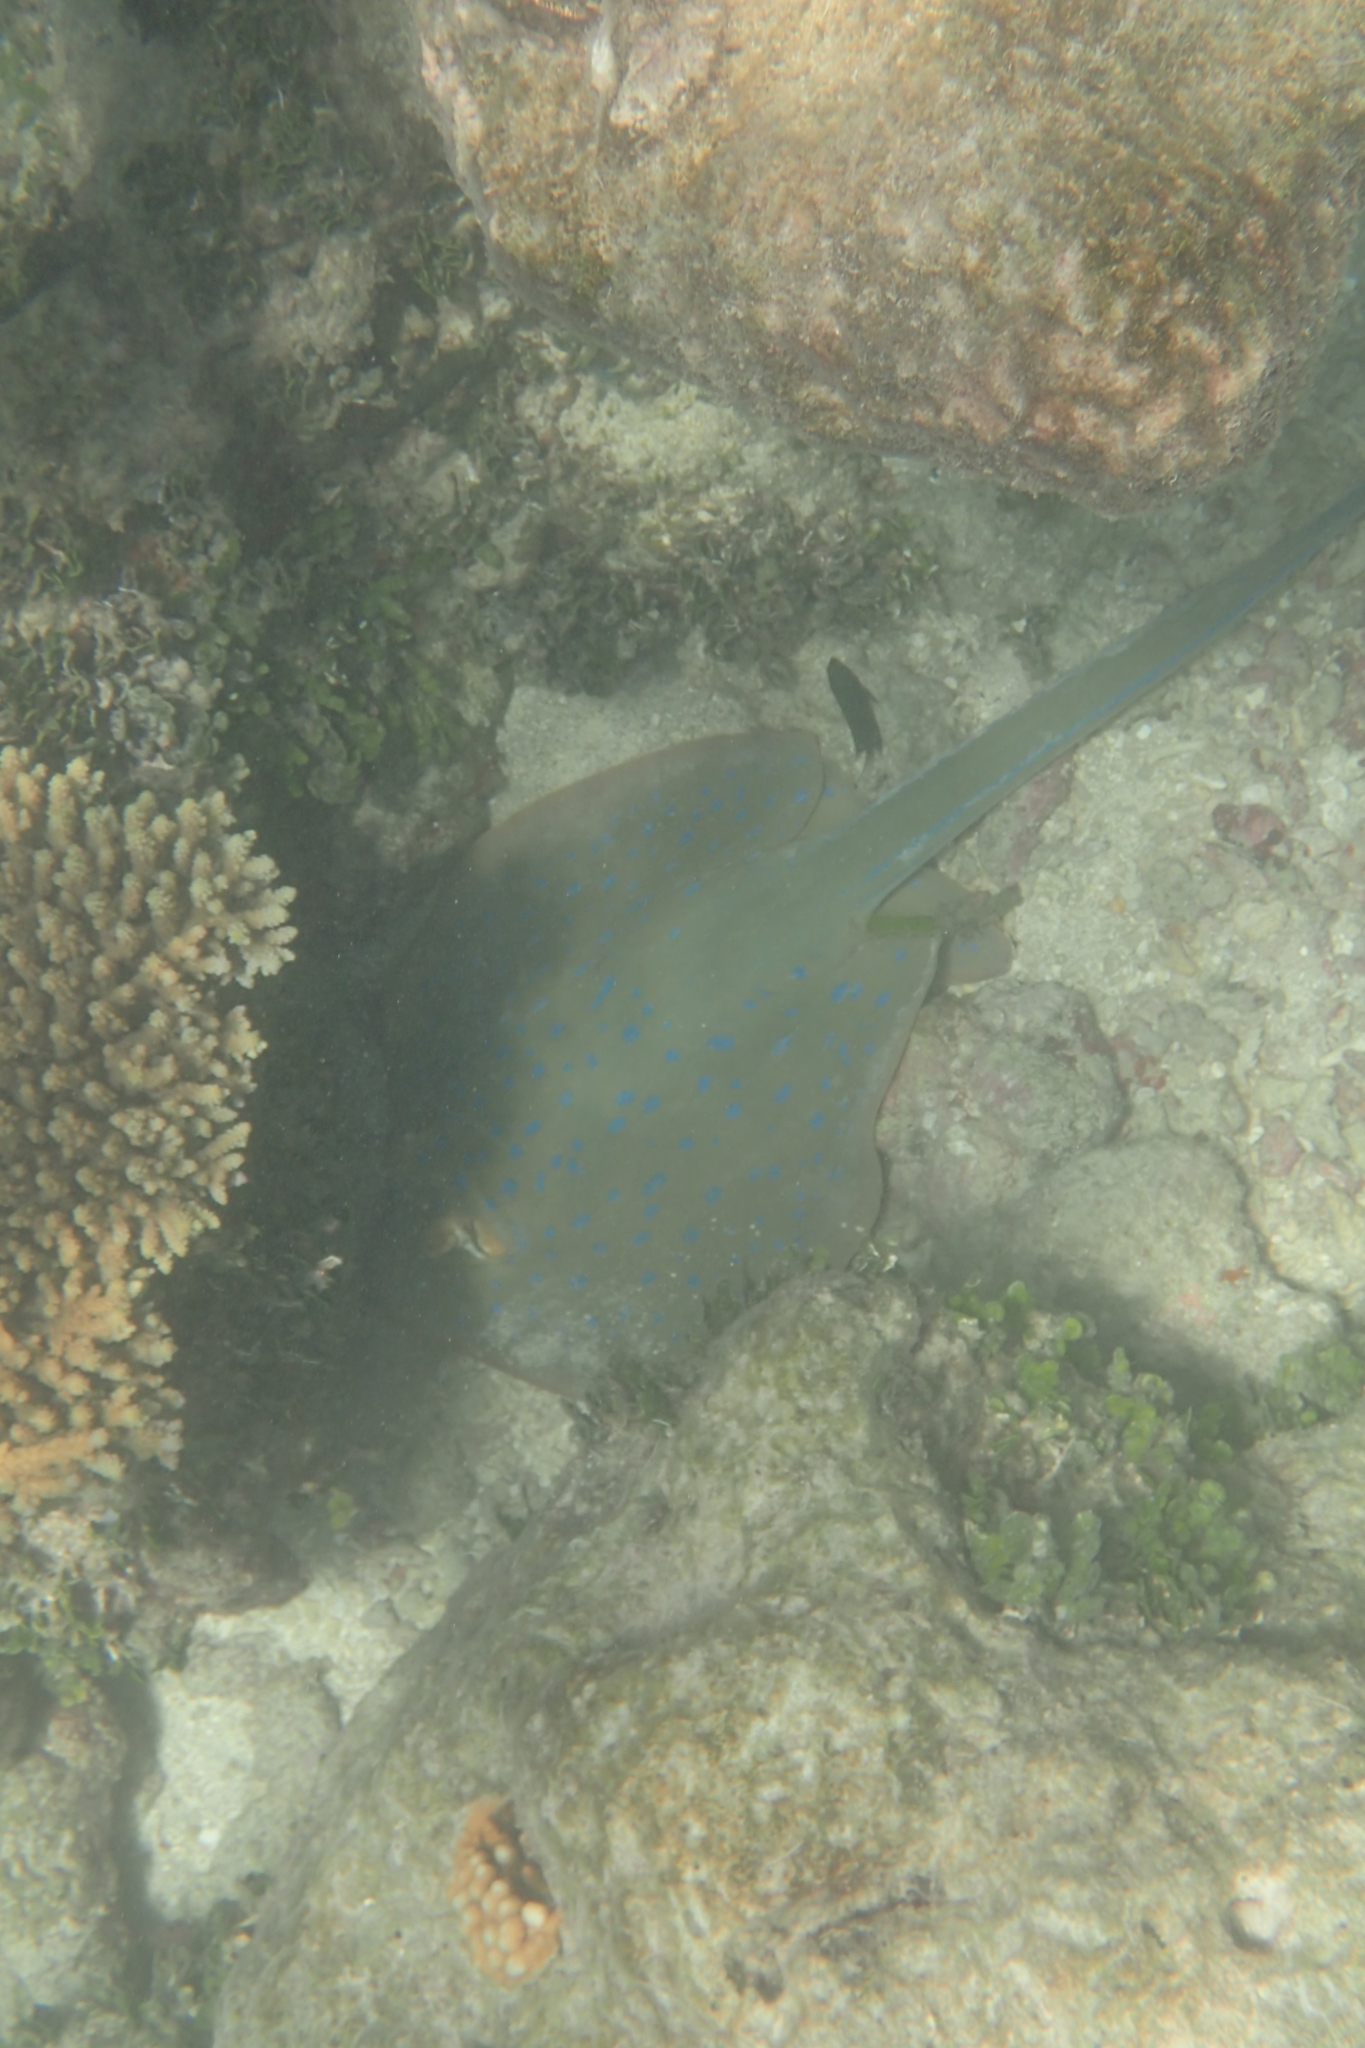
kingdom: Animalia
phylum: Chordata
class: Elasmobranchii
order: Myliobatiformes
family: Dasyatidae
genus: Taeniura
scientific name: Taeniura lymma
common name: Bluespotted ribbontail ray
